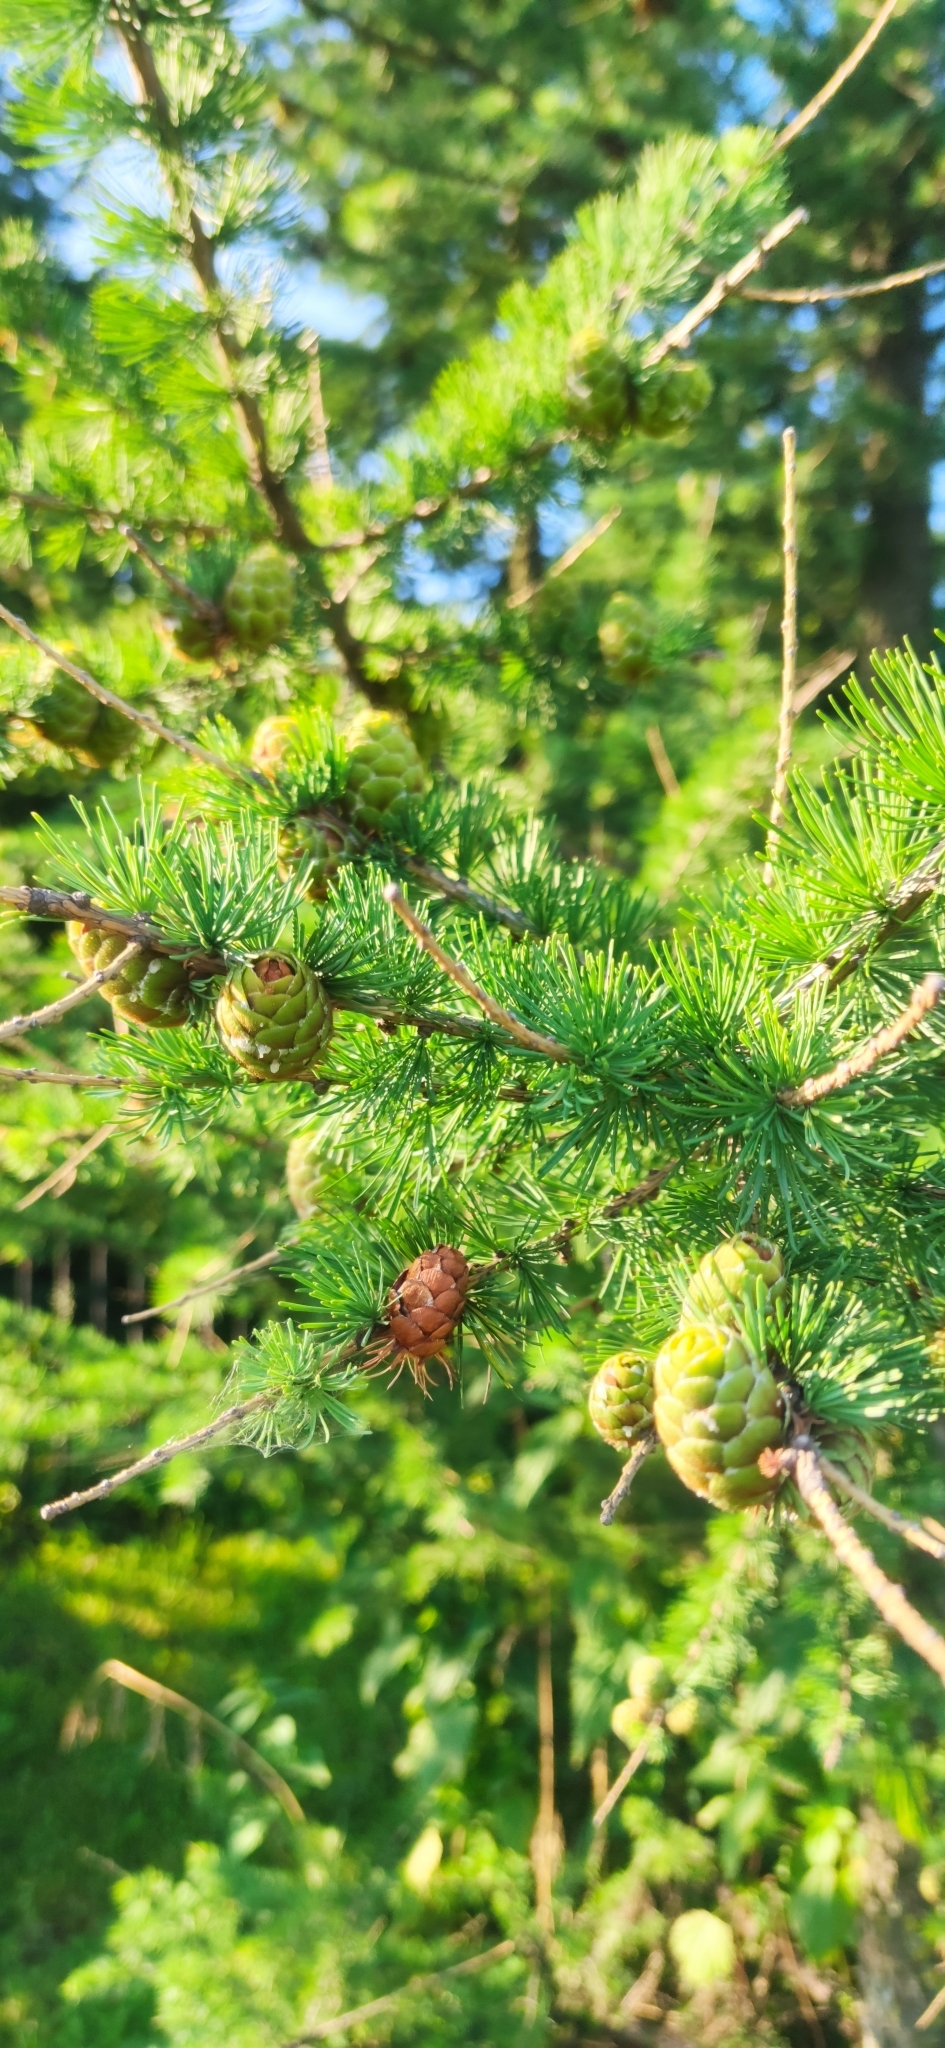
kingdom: Plantae
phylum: Tracheophyta
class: Pinopsida
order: Pinales
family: Pinaceae
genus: Larix
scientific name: Larix decidua
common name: European larch
